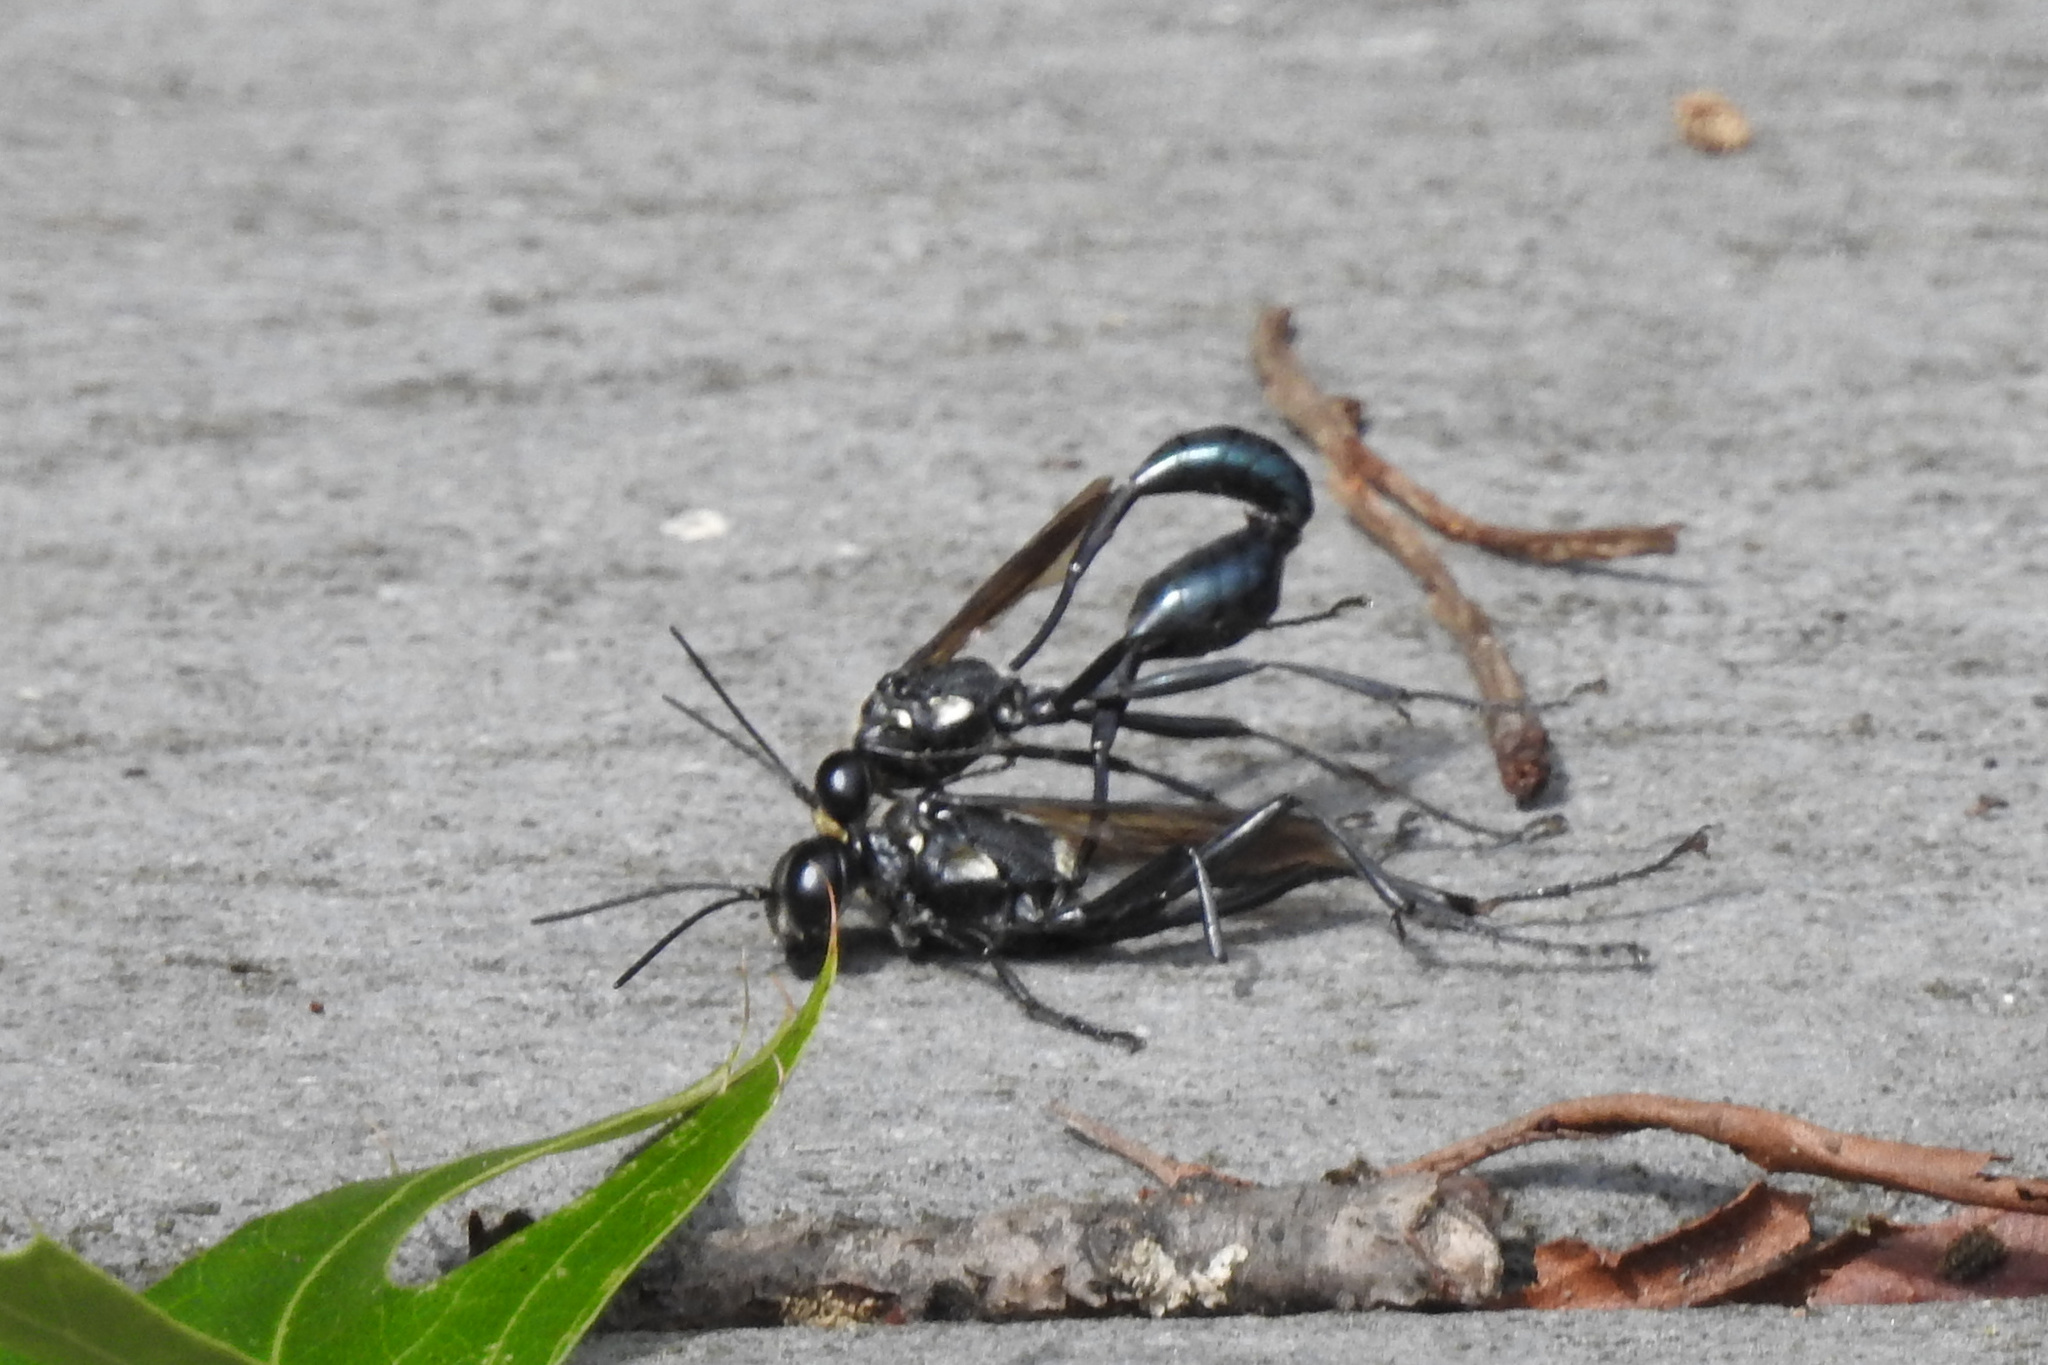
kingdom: Animalia
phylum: Arthropoda
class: Insecta
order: Hymenoptera
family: Sphecidae
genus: Eremnophila
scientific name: Eremnophila aureonotata
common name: Gold-marked thread-waisted wasp
